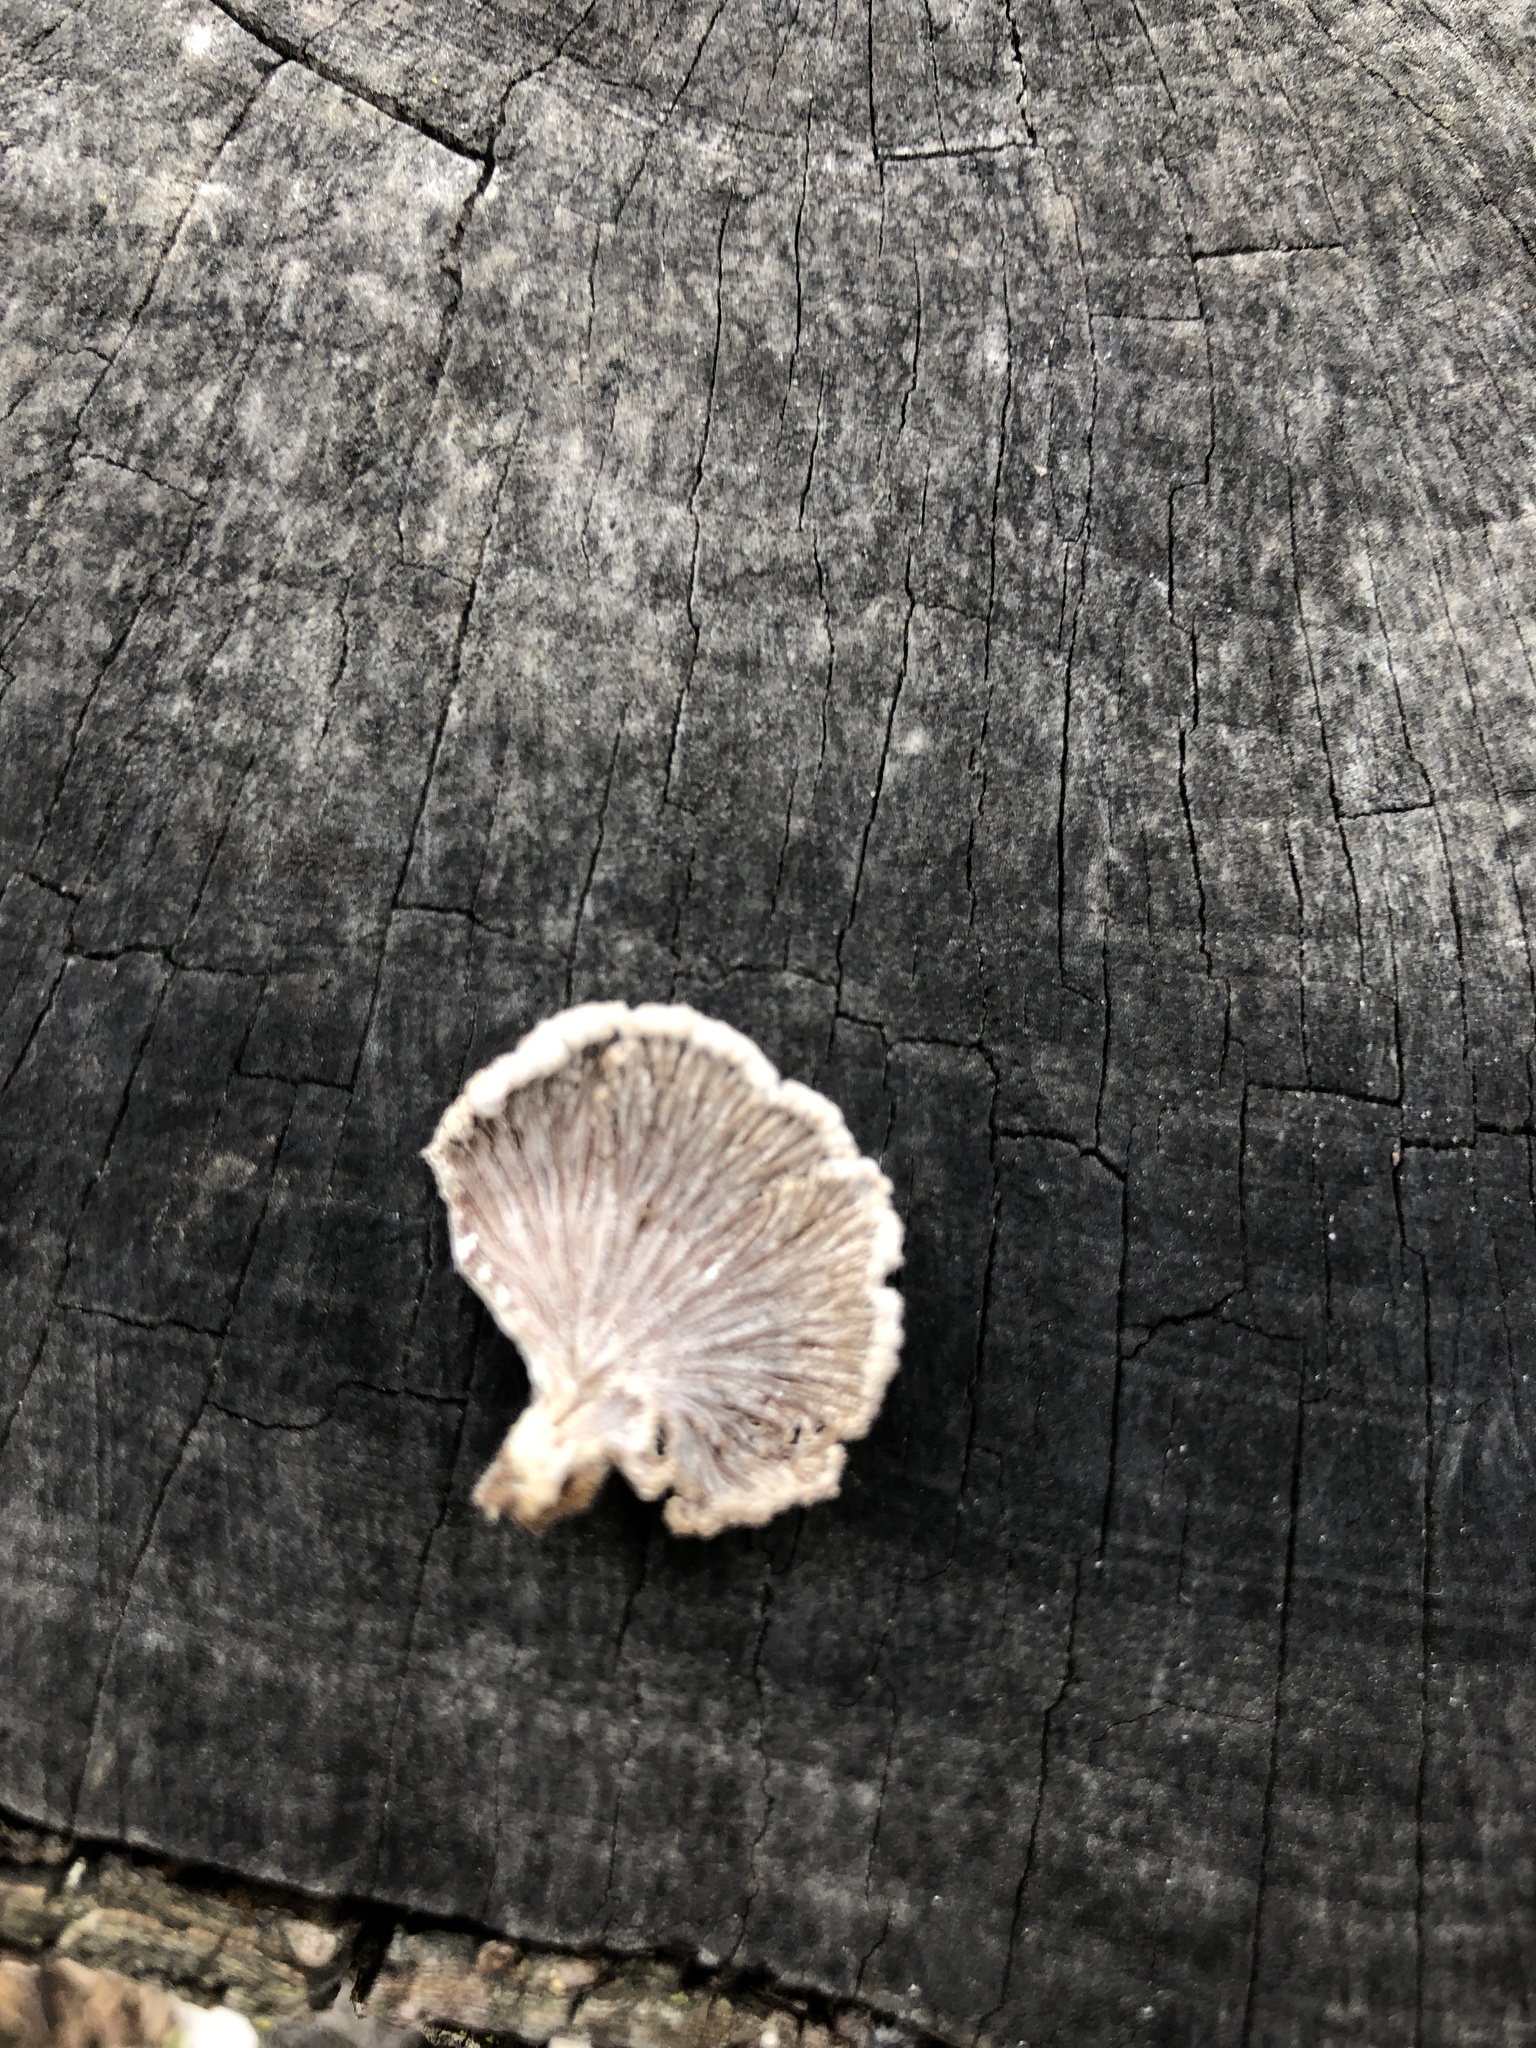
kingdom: Fungi
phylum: Basidiomycota
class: Agaricomycetes
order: Agaricales
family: Schizophyllaceae
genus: Schizophyllum
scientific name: Schizophyllum commune
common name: Common porecrust
